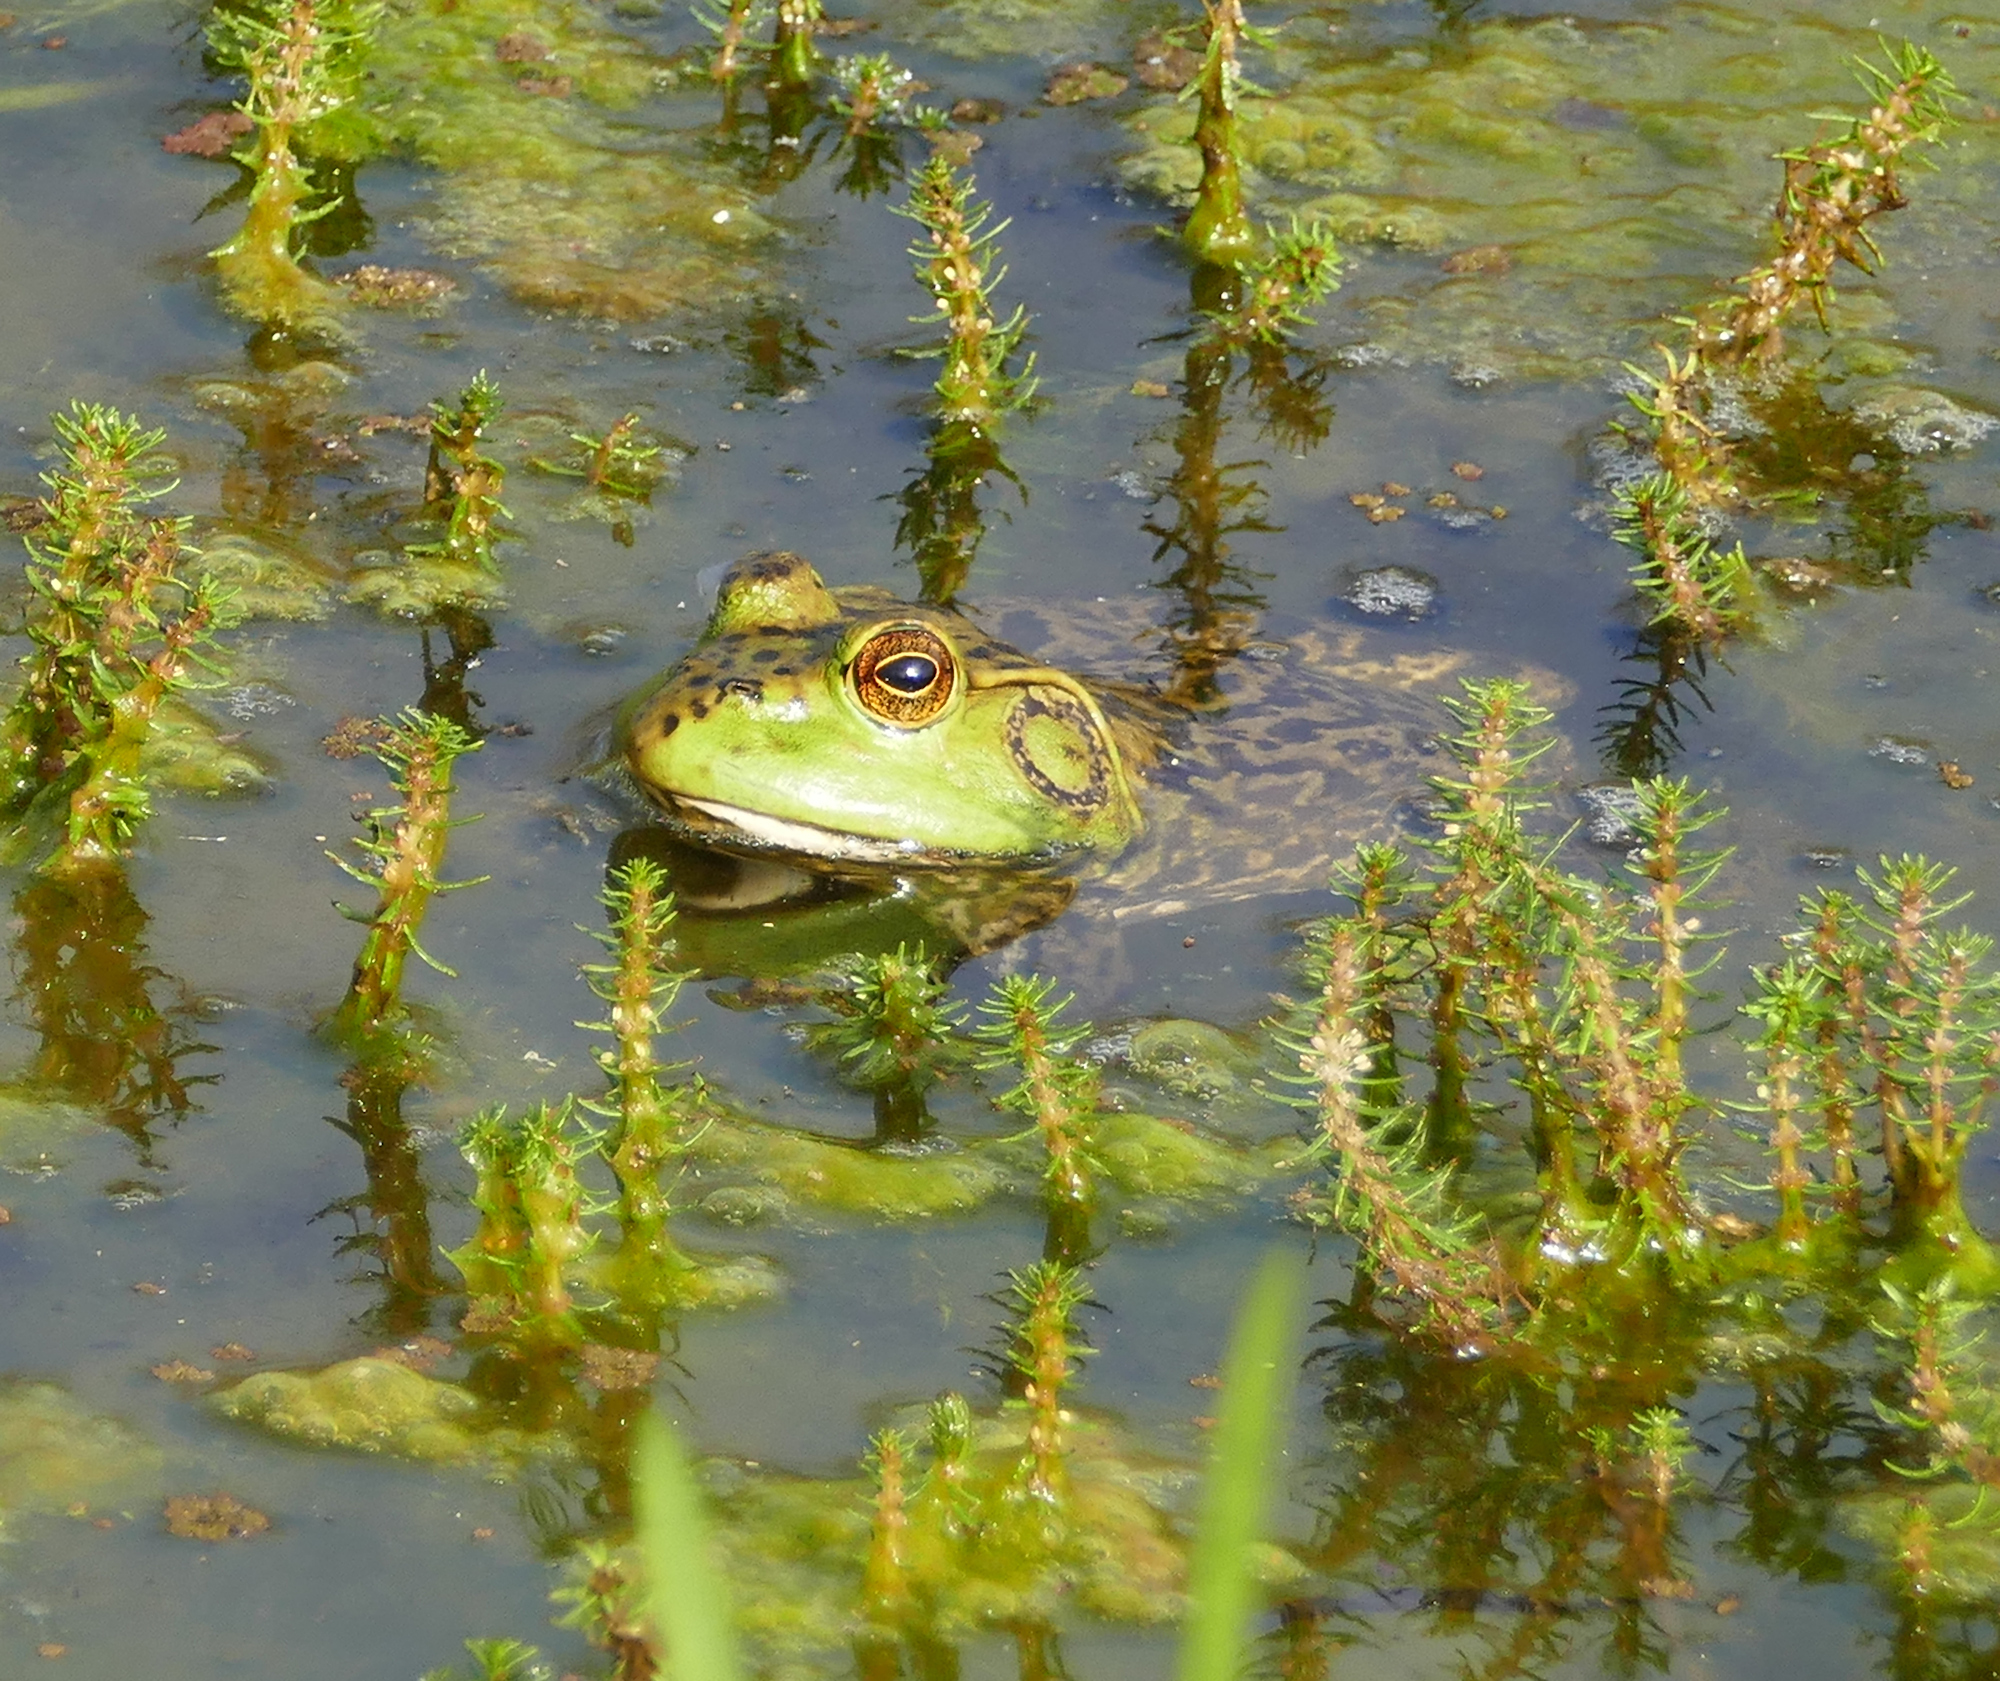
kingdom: Animalia
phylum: Chordata
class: Amphibia
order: Anura
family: Ranidae
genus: Lithobates
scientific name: Lithobates catesbeianus
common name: American bullfrog
